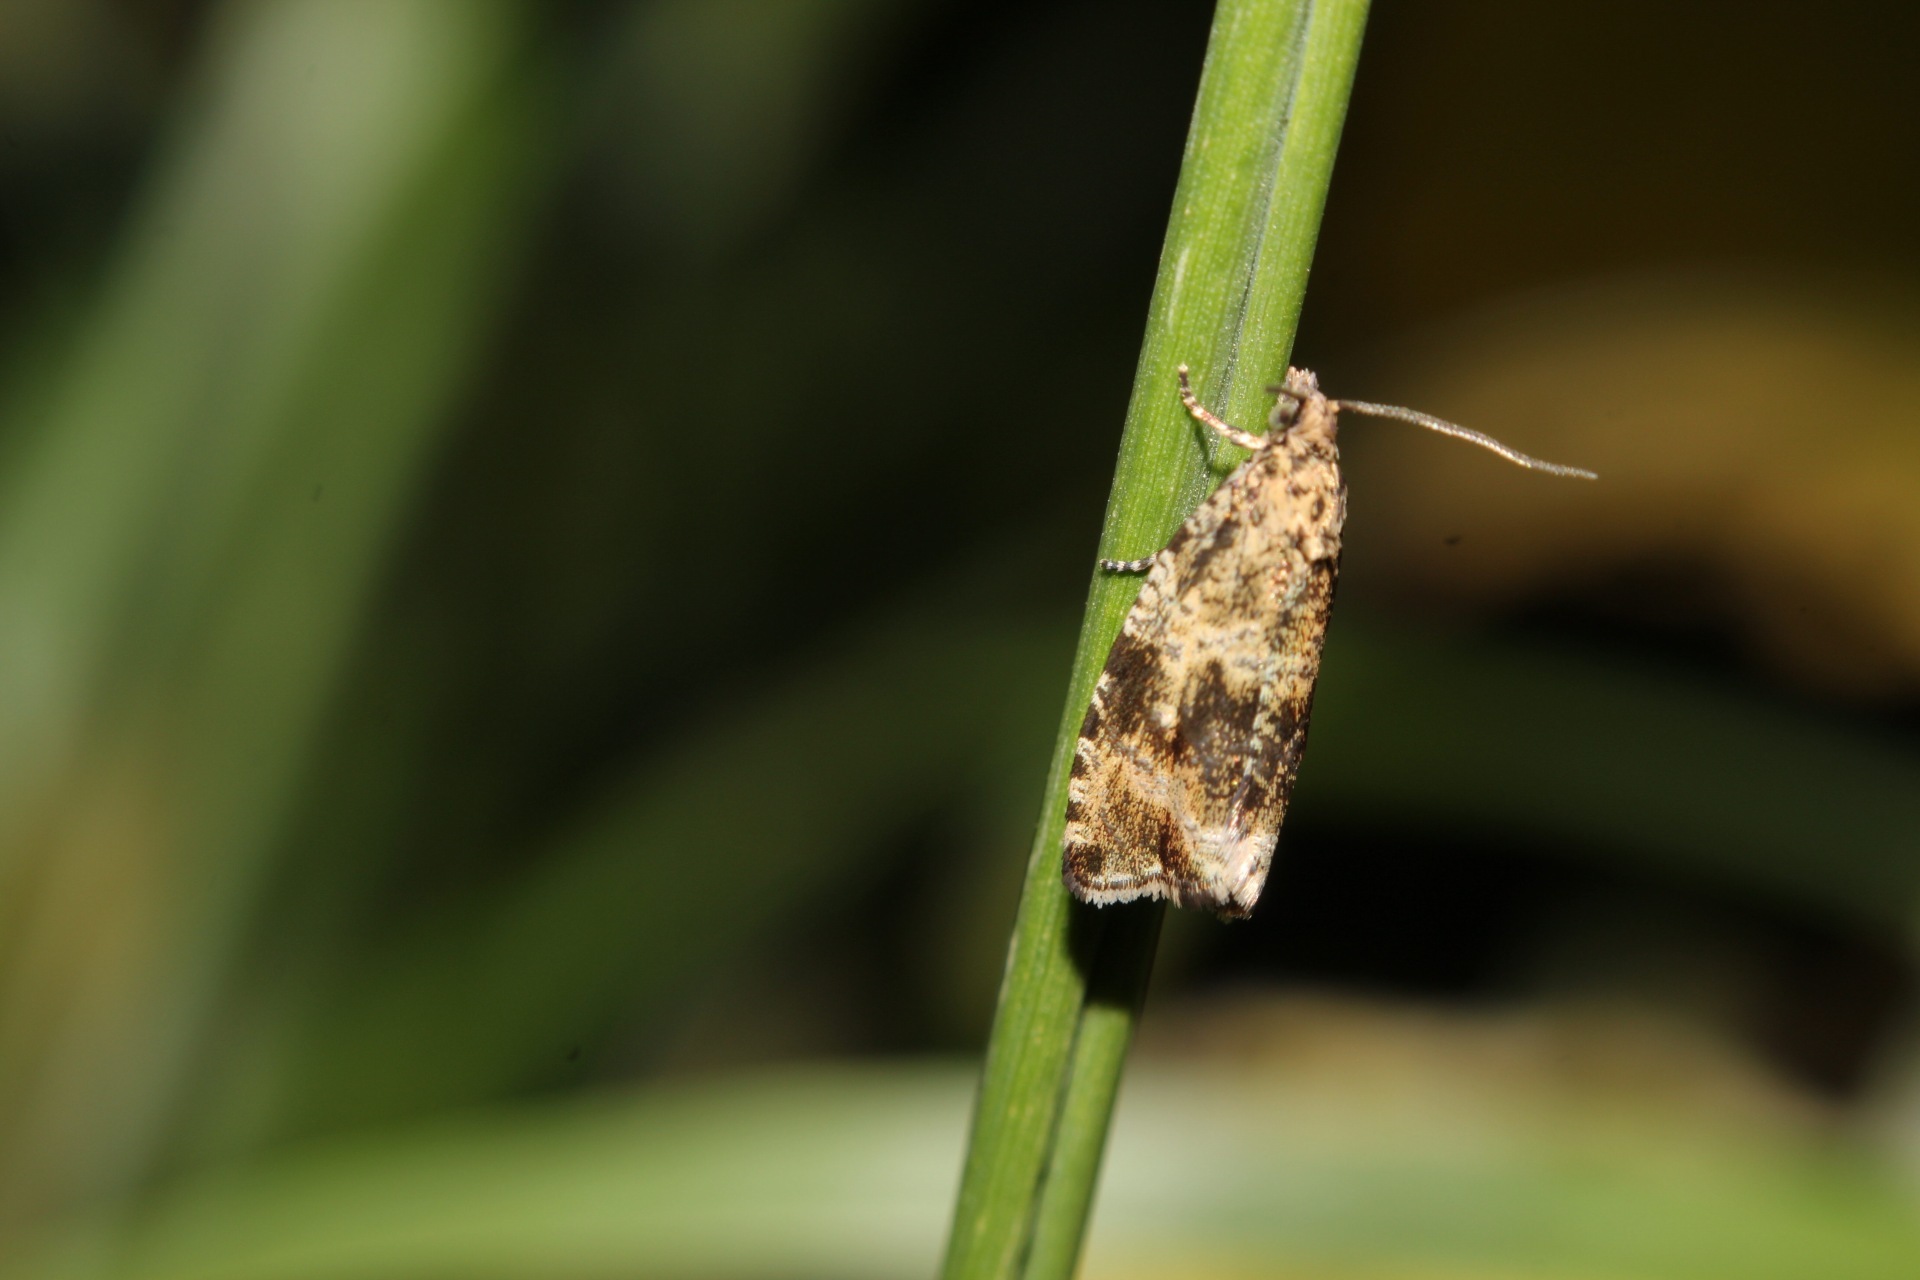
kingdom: Animalia
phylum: Arthropoda
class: Insecta
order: Lepidoptera
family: Tortricidae
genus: Syricoris
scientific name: Syricoris lacunana
